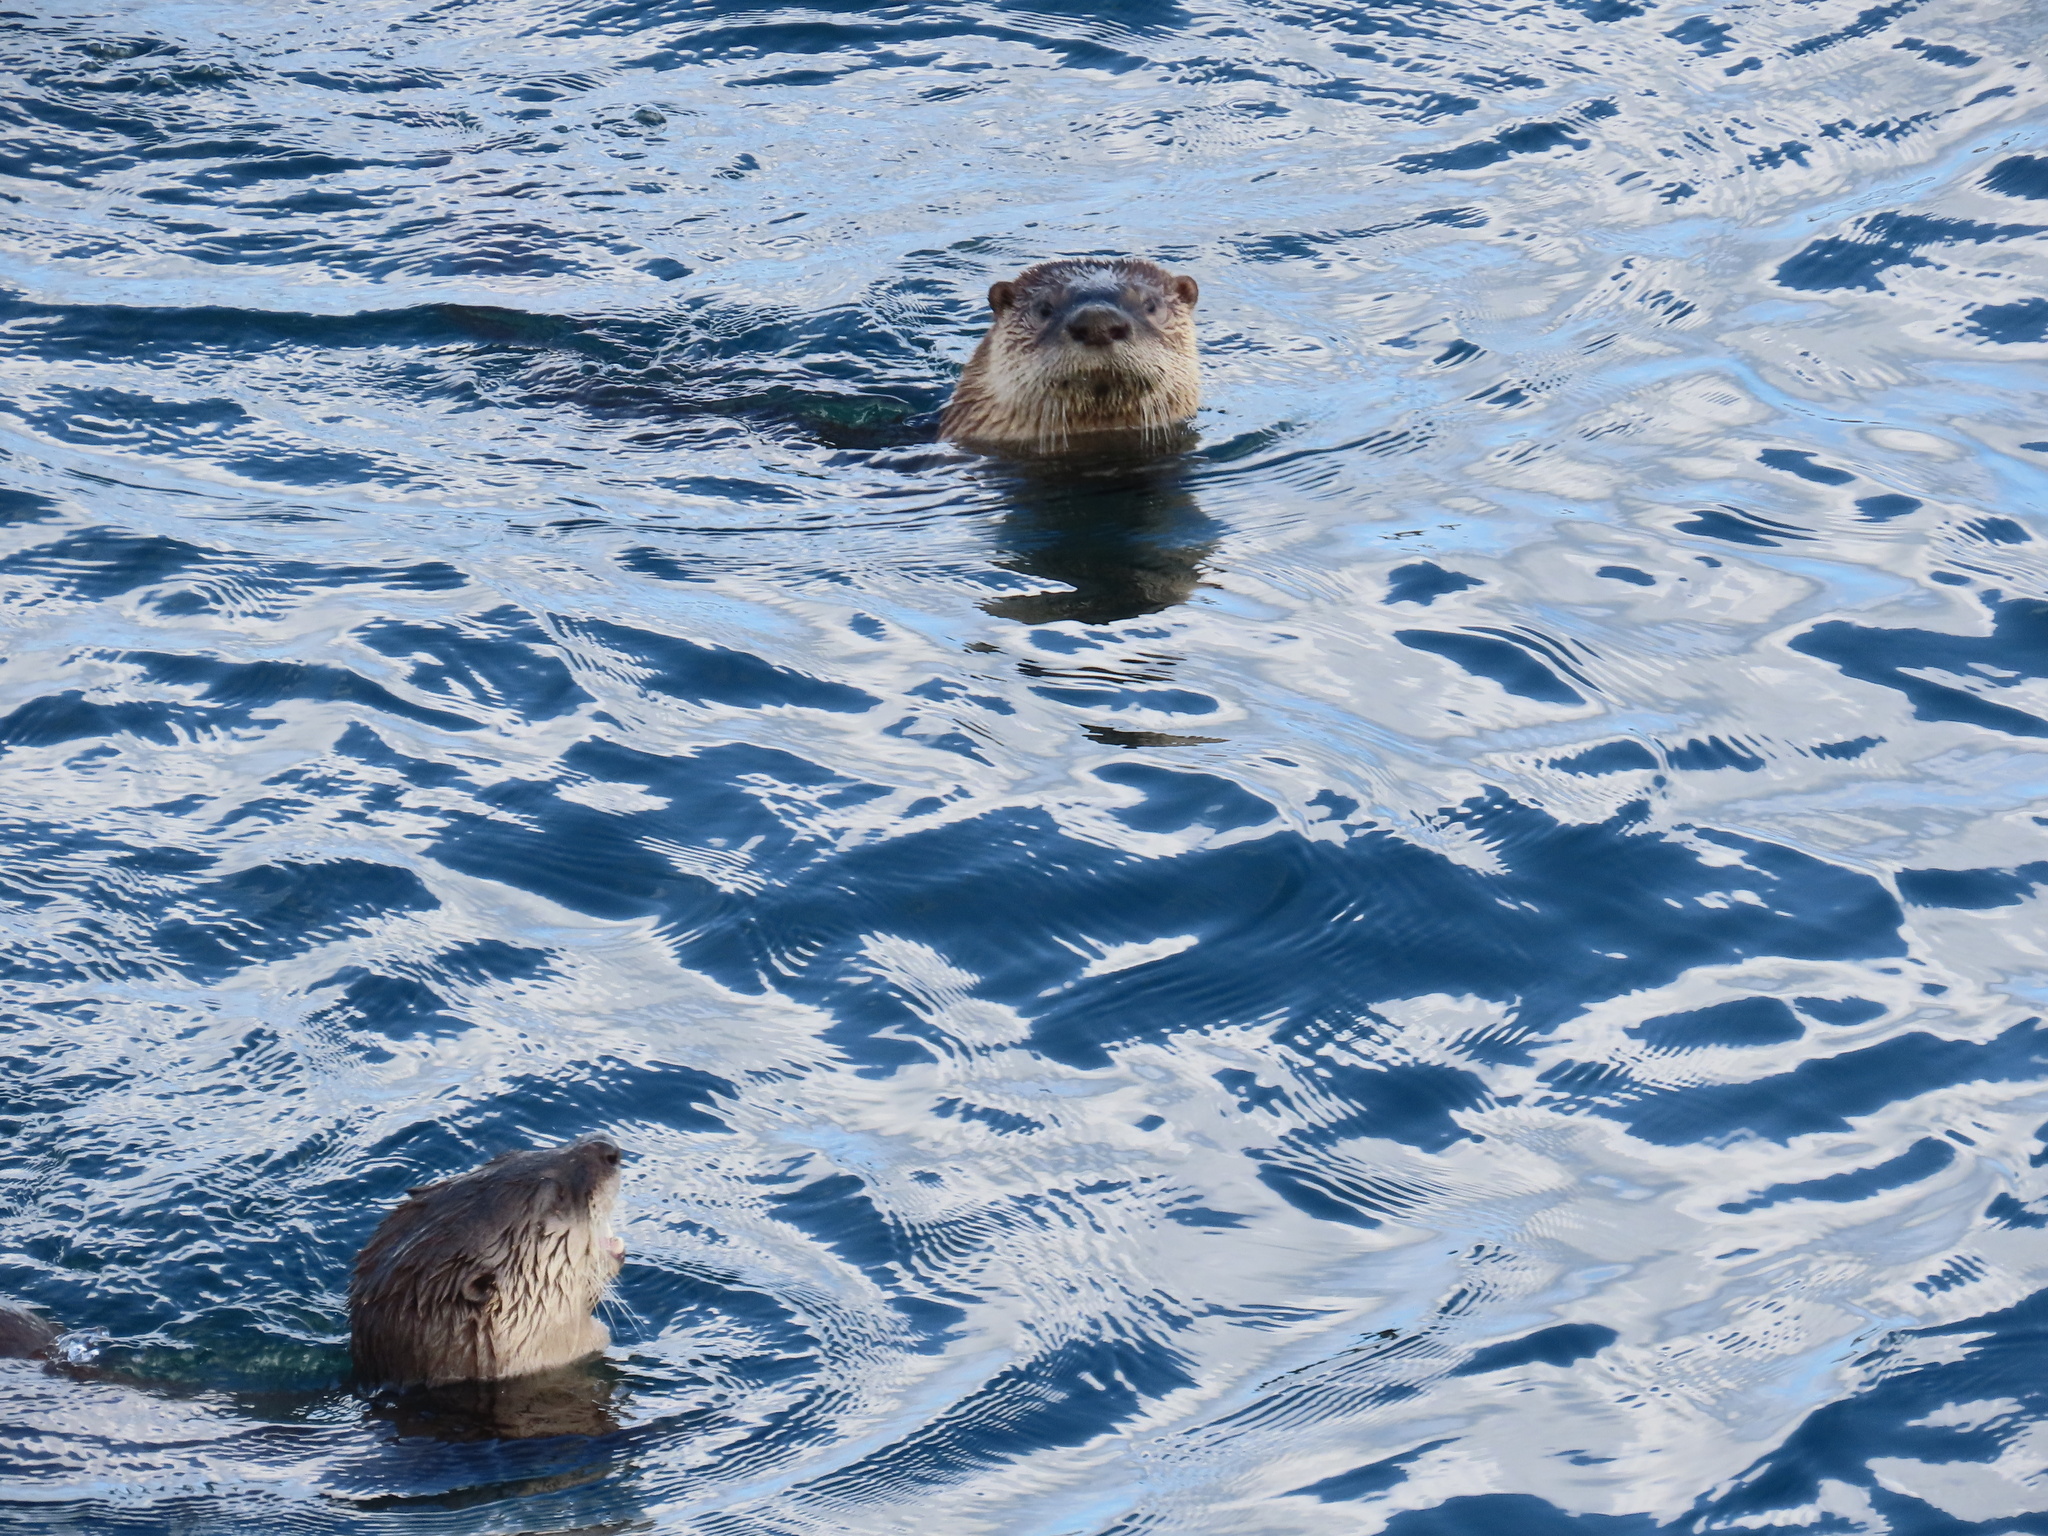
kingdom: Animalia
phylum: Chordata
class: Mammalia
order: Carnivora
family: Mustelidae
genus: Lontra
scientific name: Lontra canadensis
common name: North american river otter
